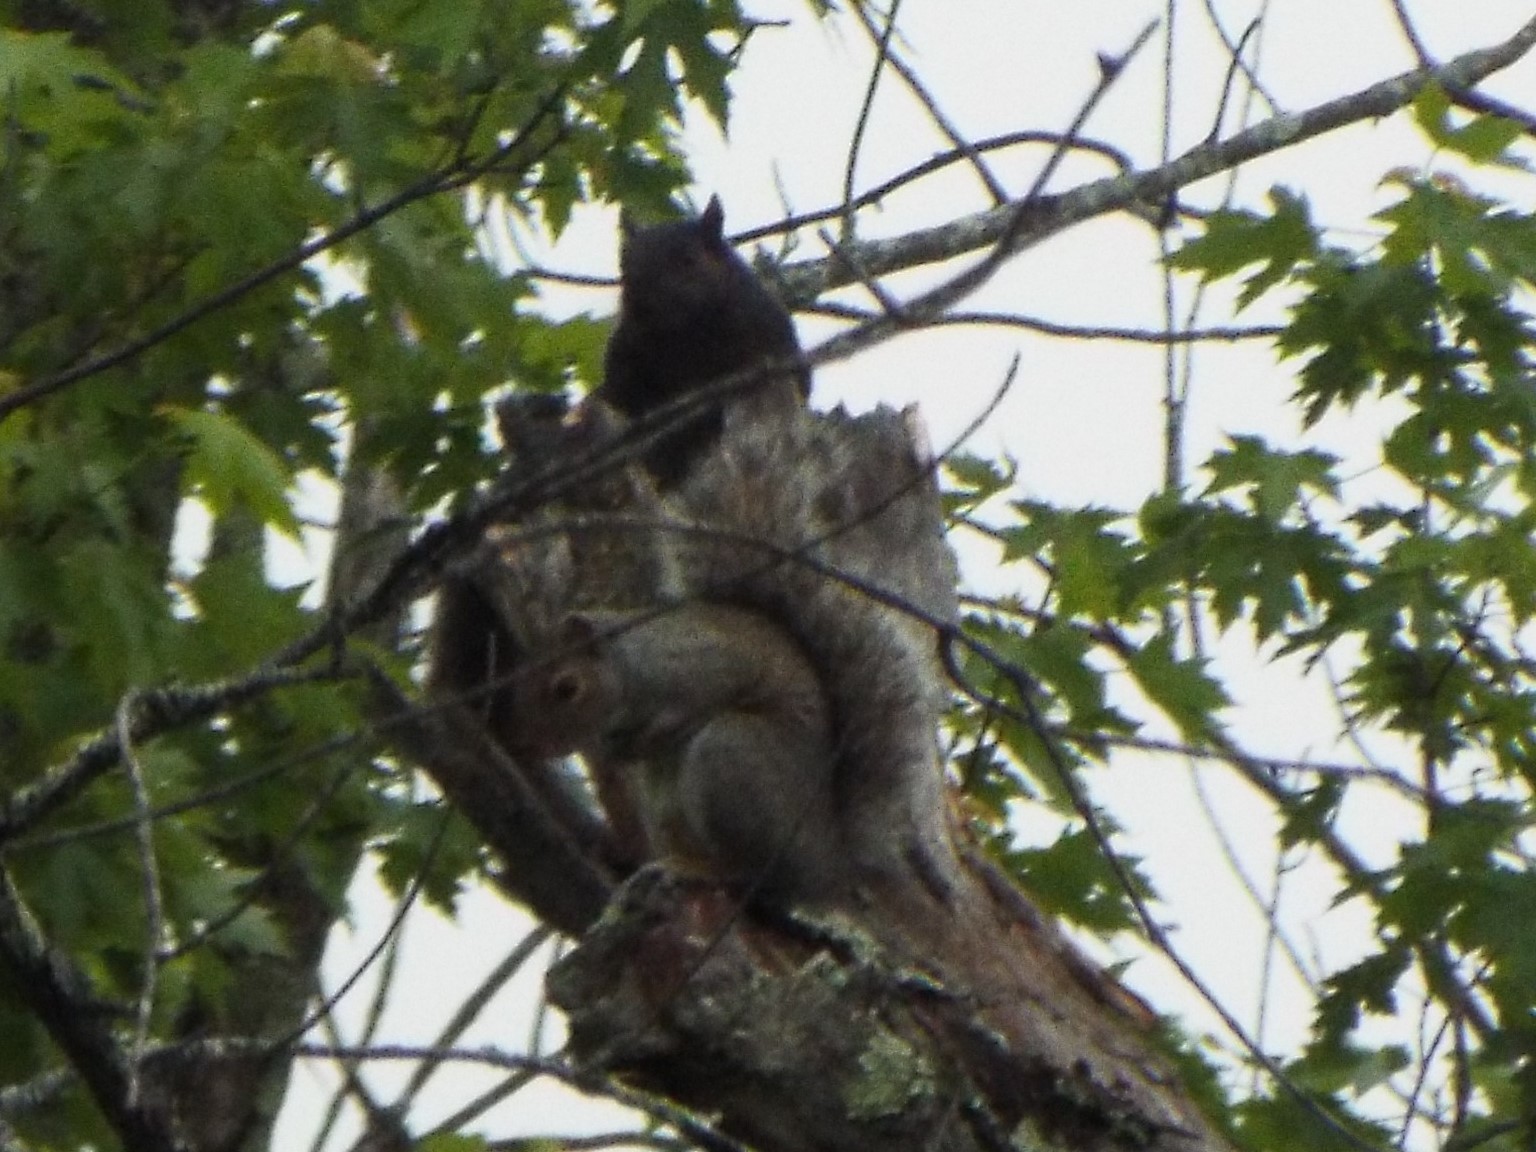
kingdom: Animalia
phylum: Chordata
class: Mammalia
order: Rodentia
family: Sciuridae
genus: Sciurus
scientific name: Sciurus carolinensis
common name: Eastern gray squirrel
